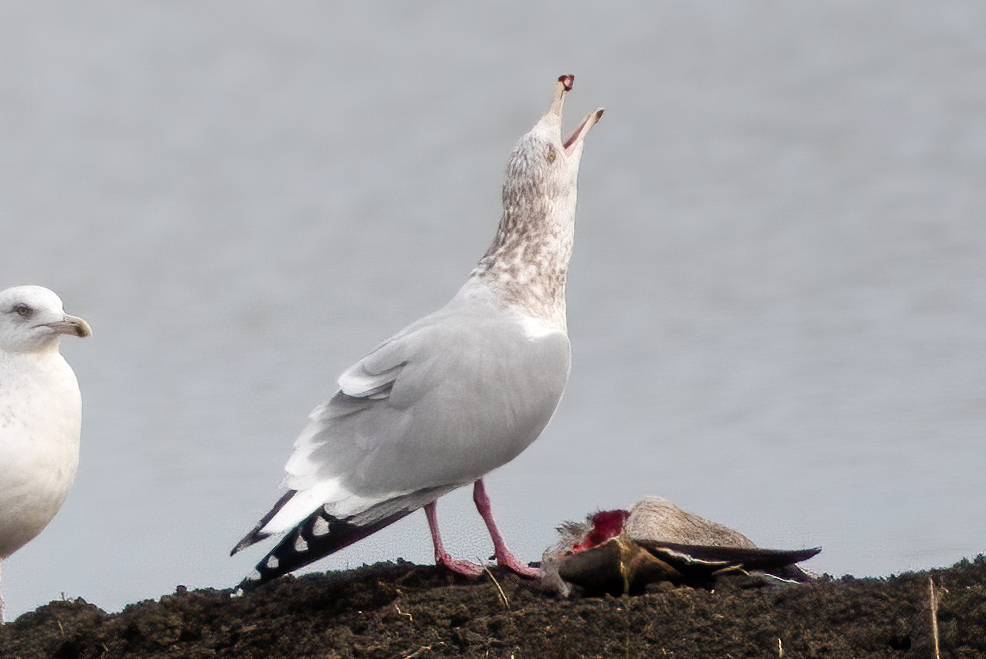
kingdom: Animalia
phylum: Chordata
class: Aves
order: Charadriiformes
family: Laridae
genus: Larus
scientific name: Larus argentatus
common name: Herring gull
